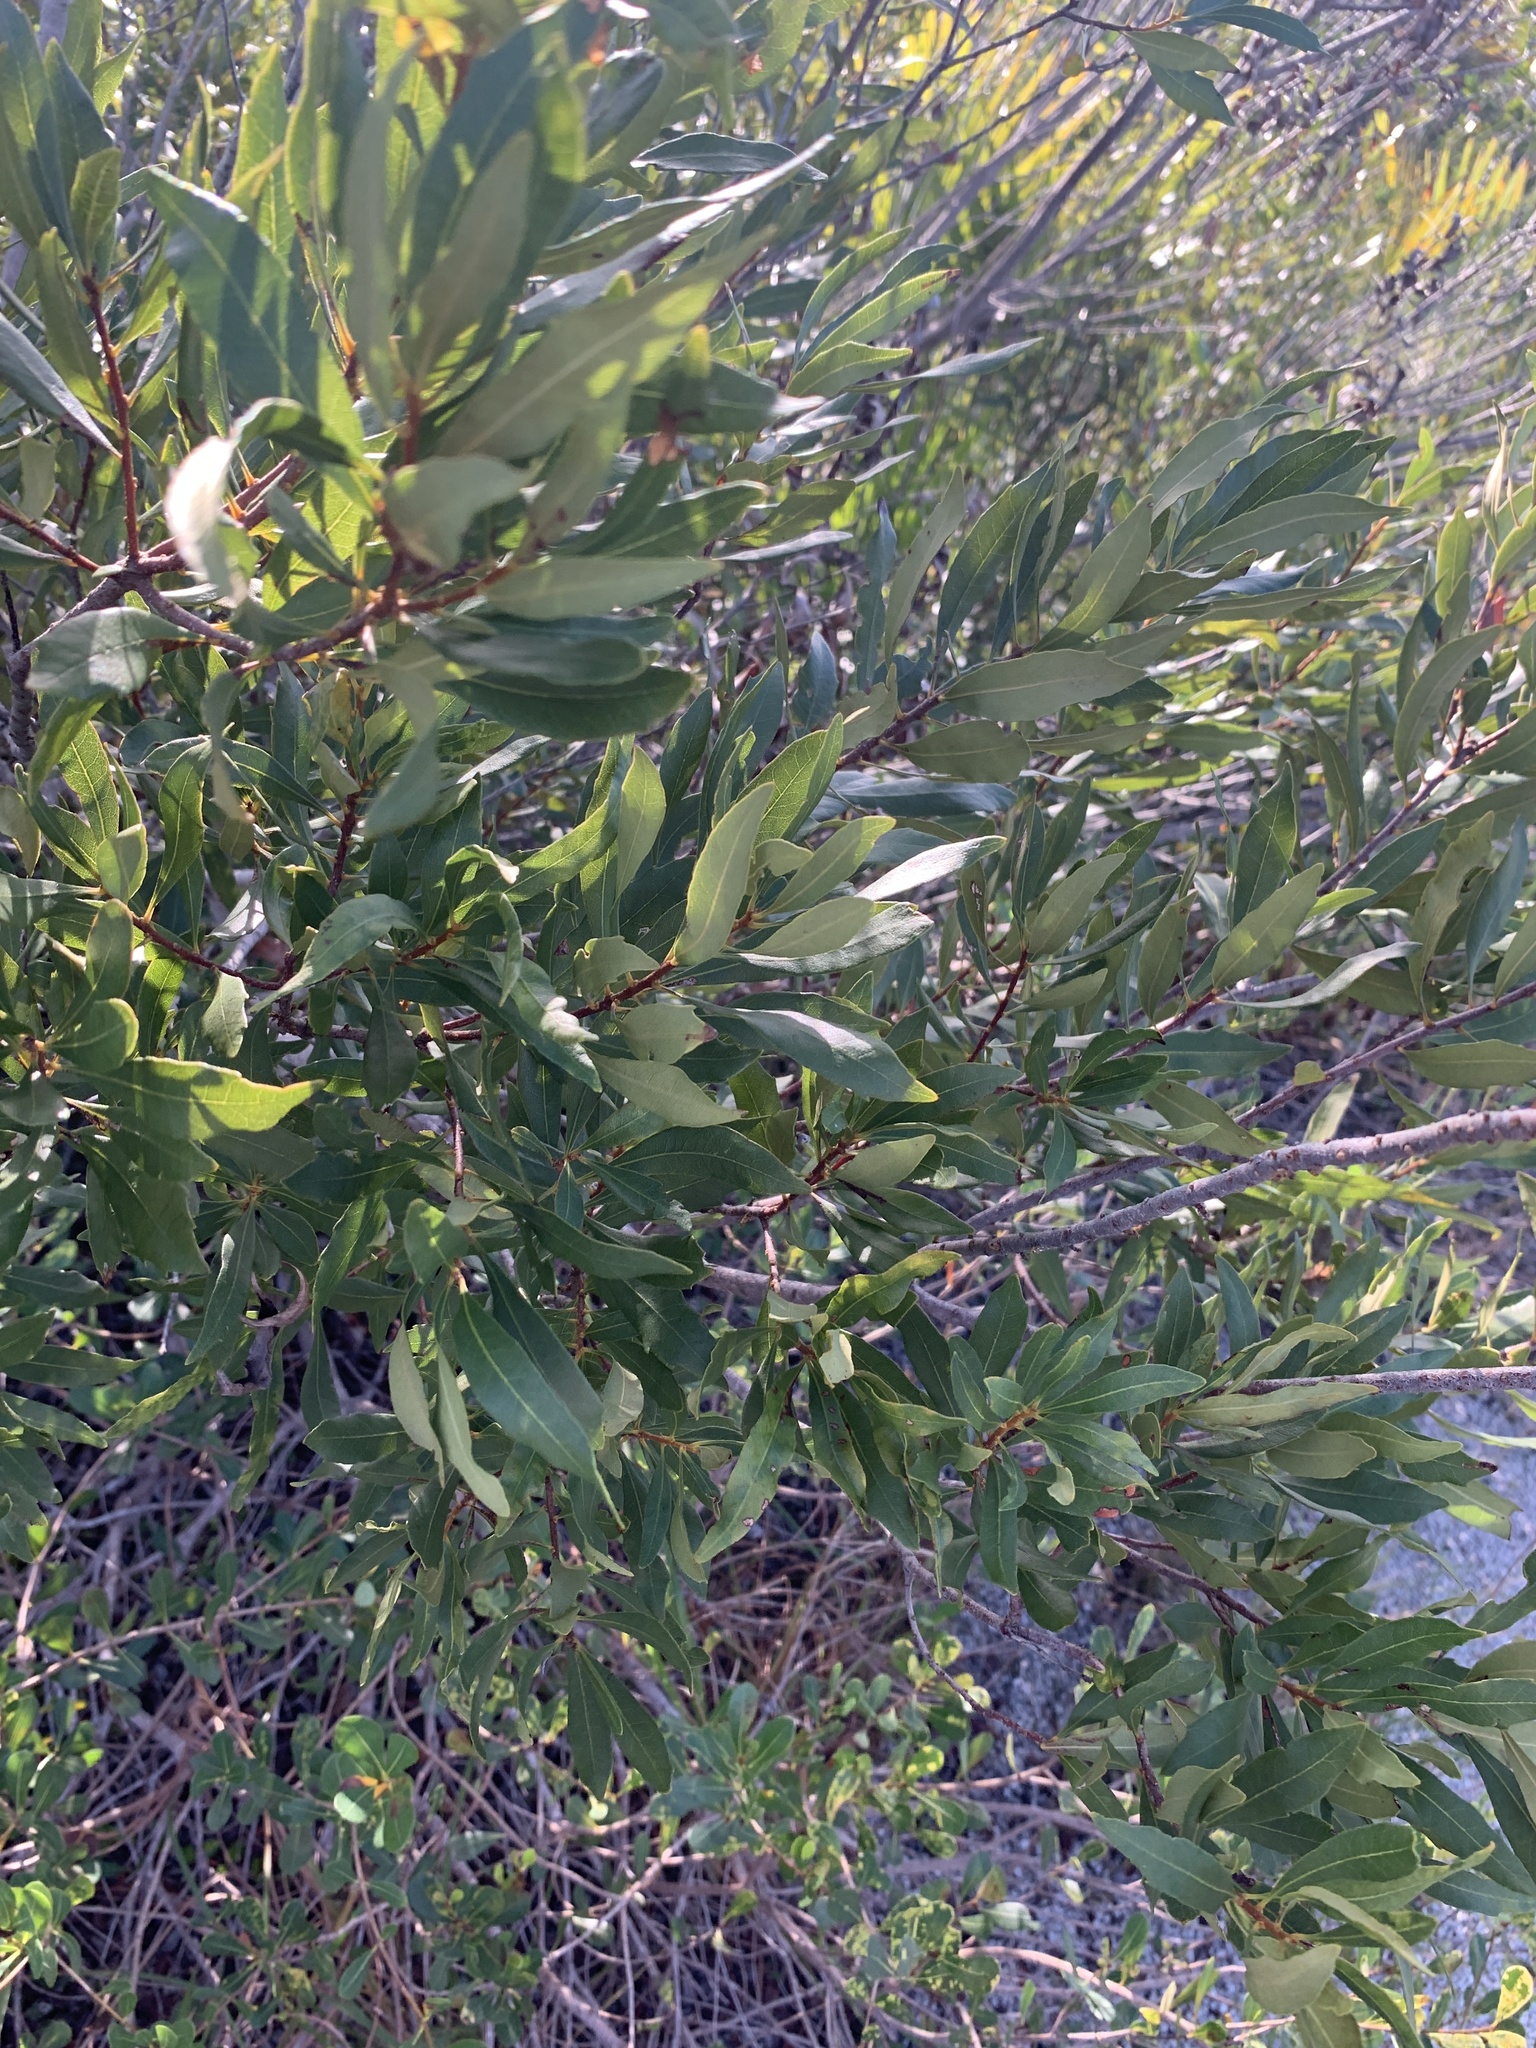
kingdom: Plantae
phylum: Tracheophyta
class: Magnoliopsida
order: Fagales
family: Myricaceae
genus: Morella
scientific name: Morella cerifera
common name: Wax myrtle
